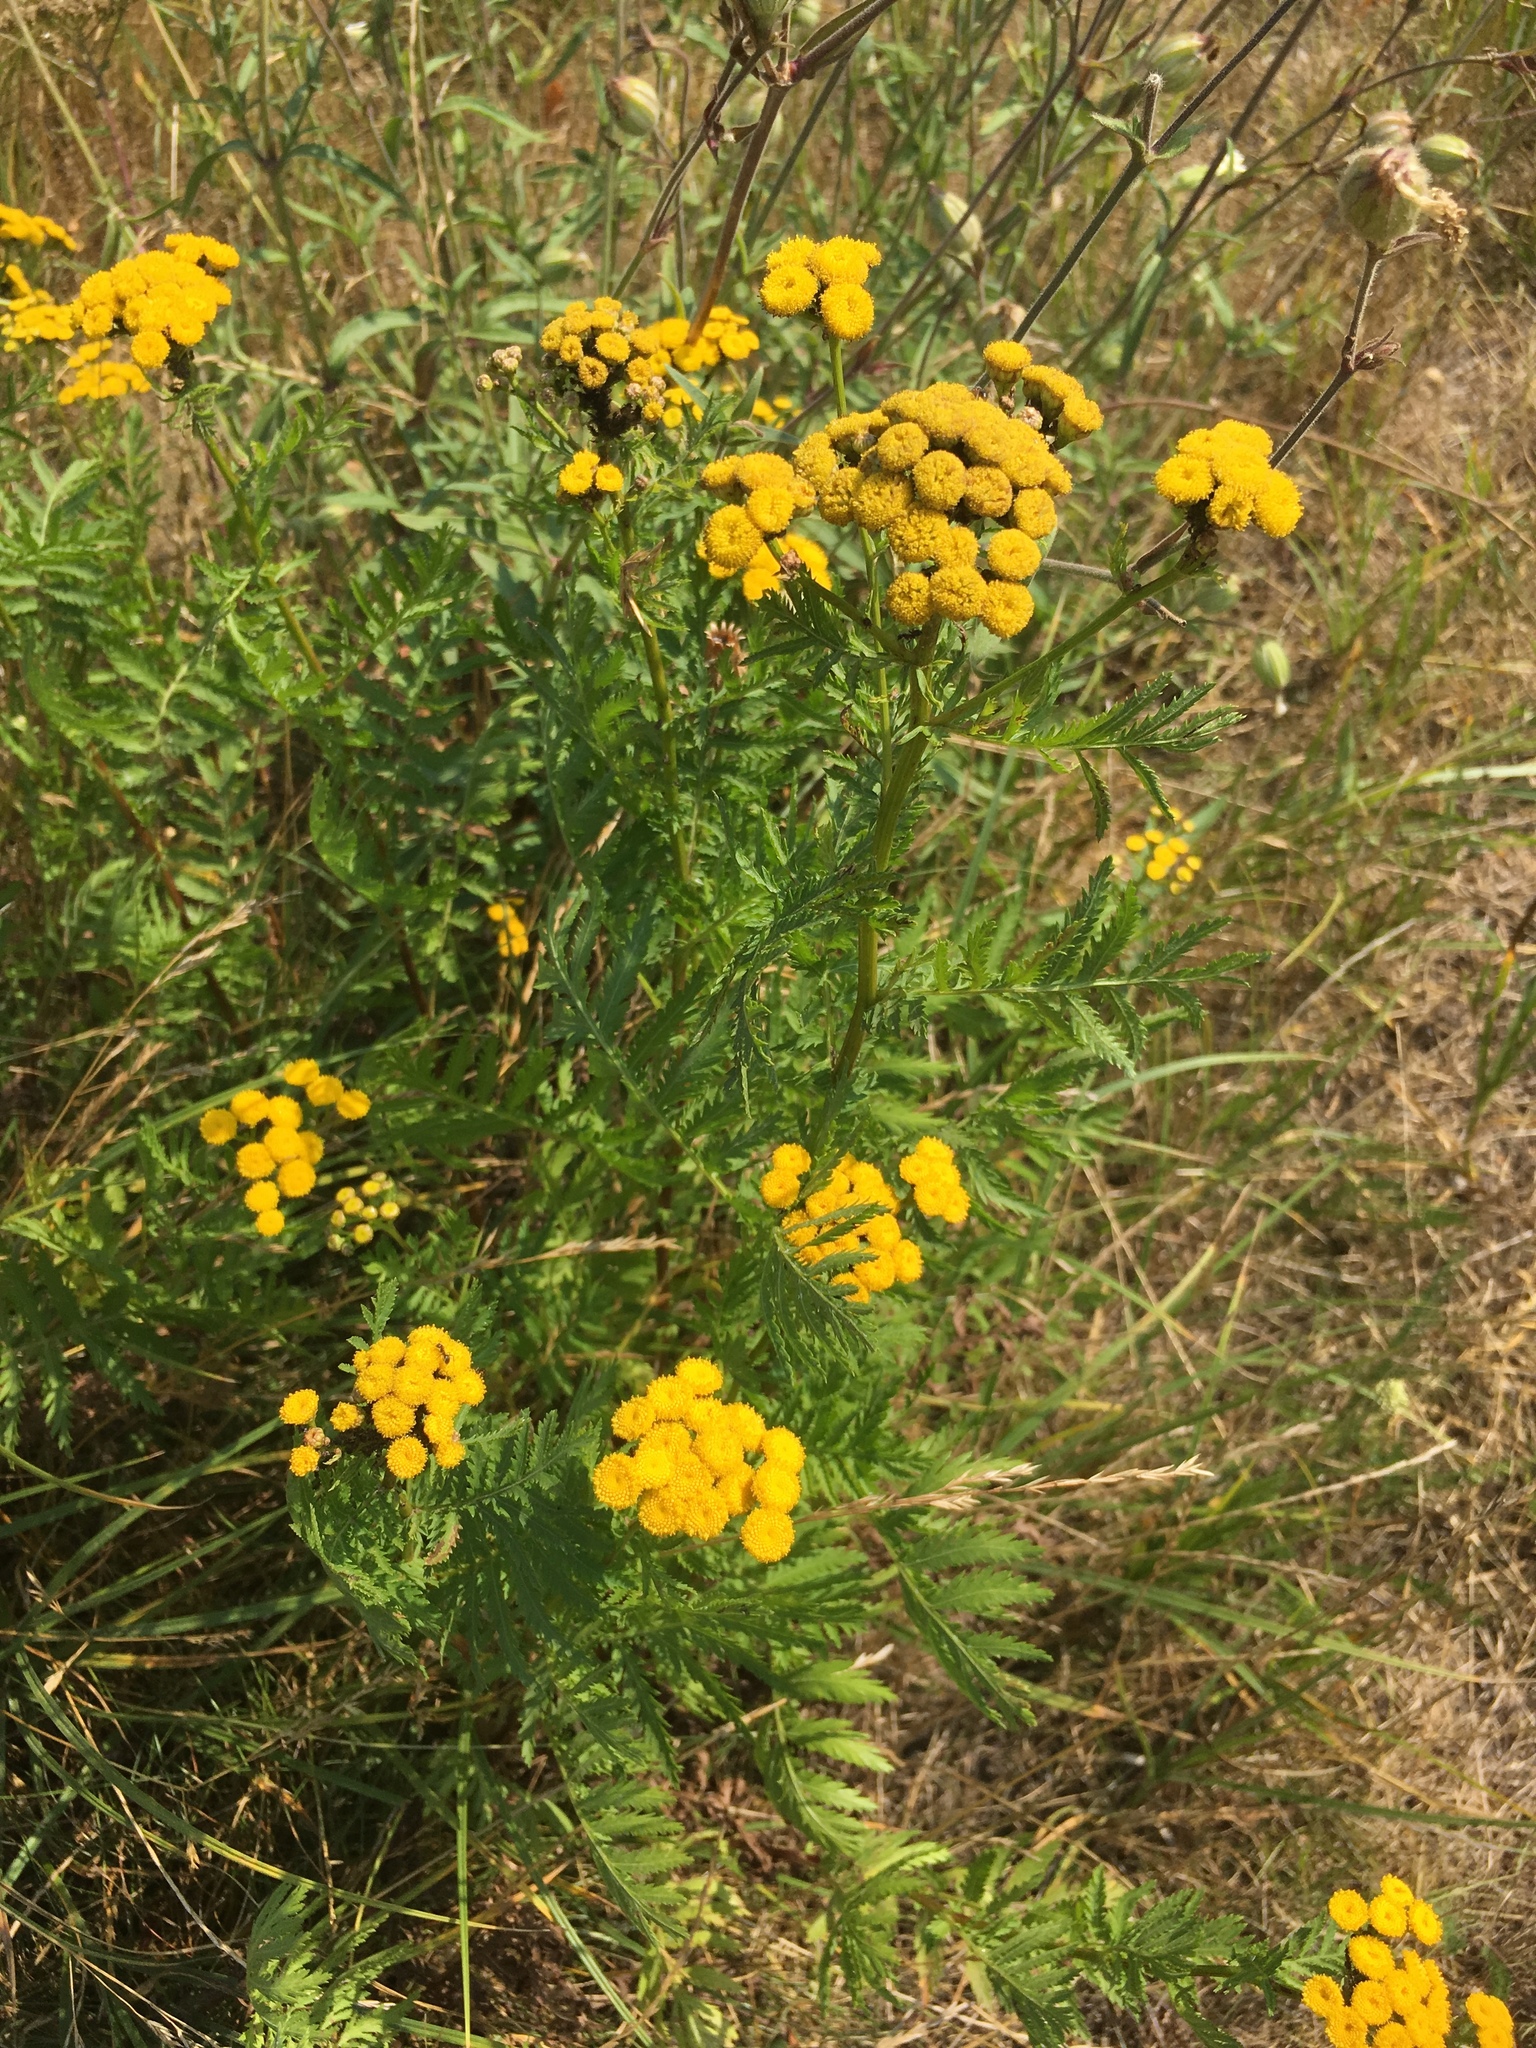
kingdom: Plantae
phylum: Tracheophyta
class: Magnoliopsida
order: Asterales
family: Asteraceae
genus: Tanacetum
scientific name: Tanacetum vulgare
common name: Common tansy
